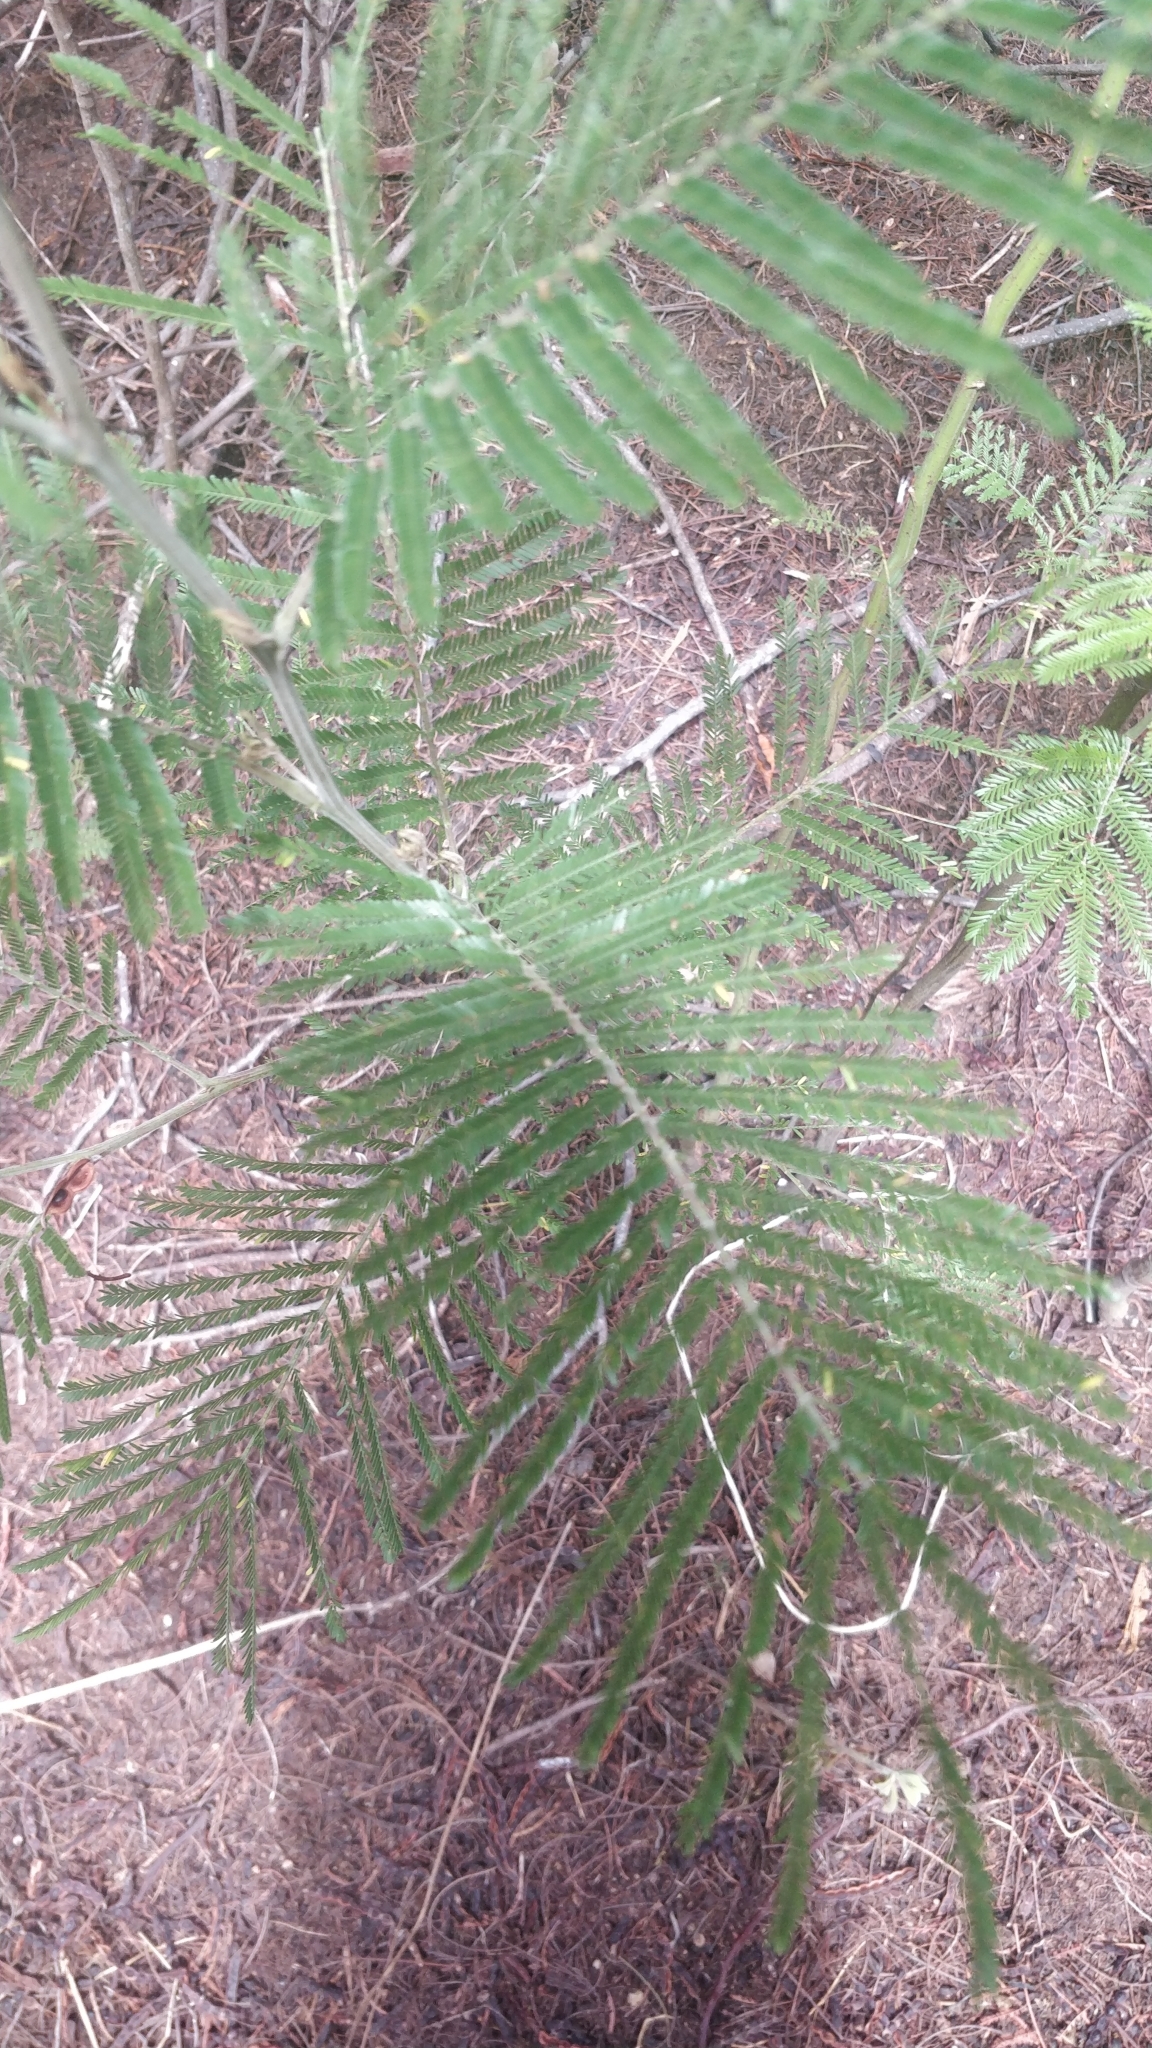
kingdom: Plantae
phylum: Tracheophyta
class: Magnoliopsida
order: Fabales
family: Fabaceae
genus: Acacia
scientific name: Acacia mearnsii
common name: Black wattle
